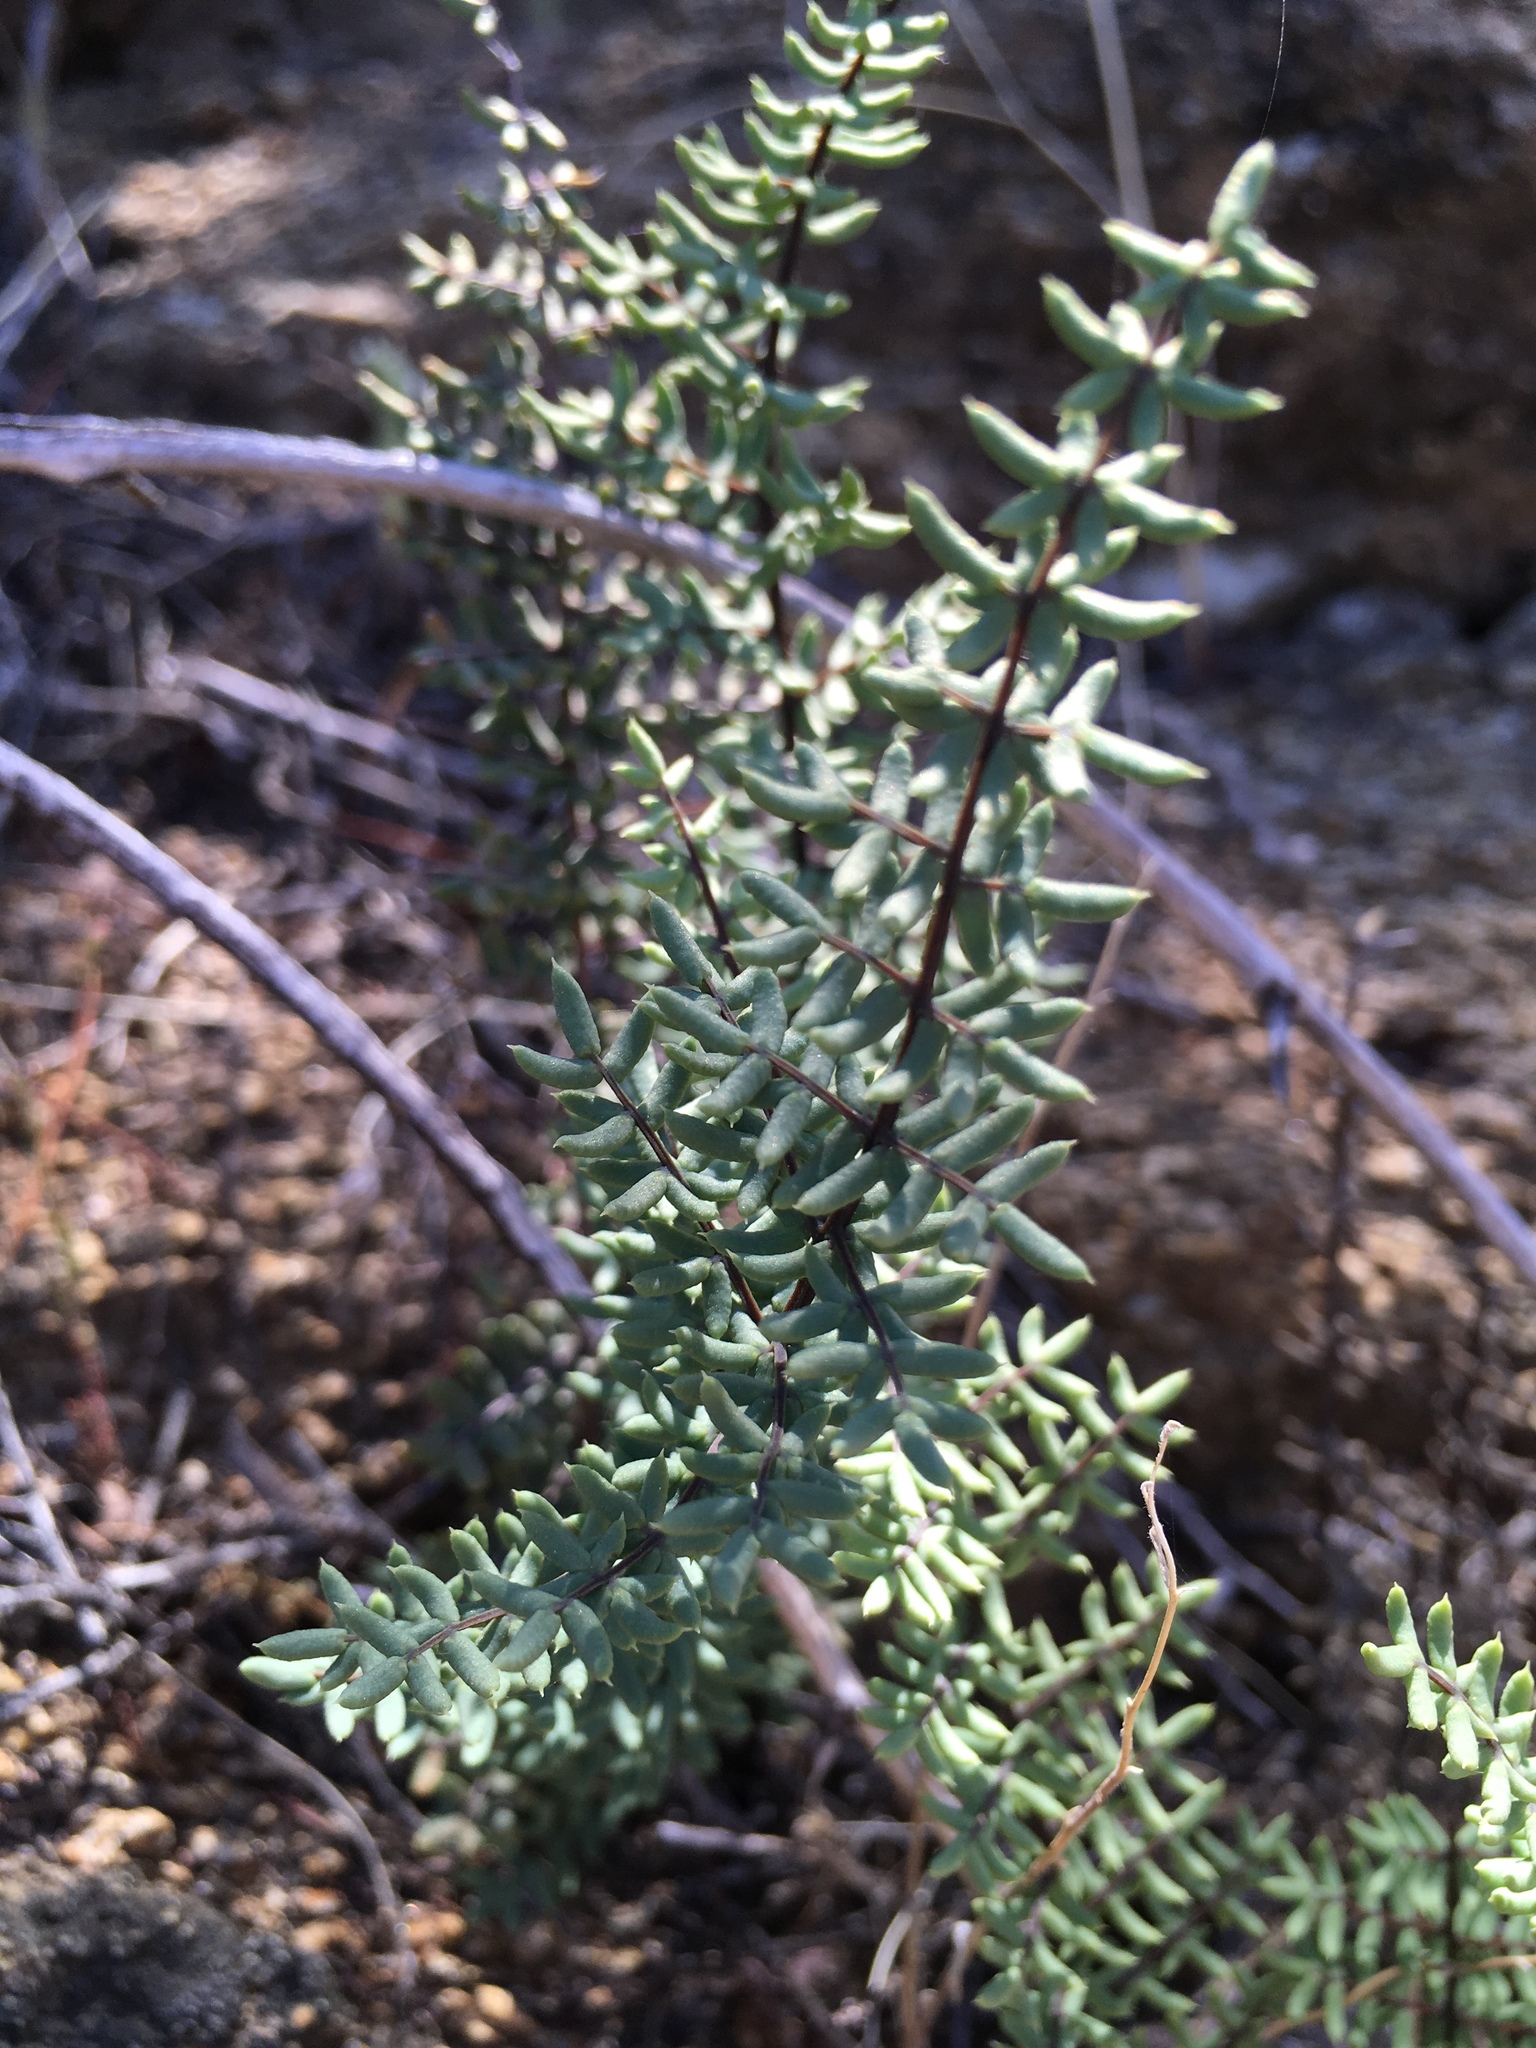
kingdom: Plantae
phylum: Tracheophyta
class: Polypodiopsida
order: Polypodiales
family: Pteridaceae
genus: Pellaea
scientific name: Pellaea mucronata
